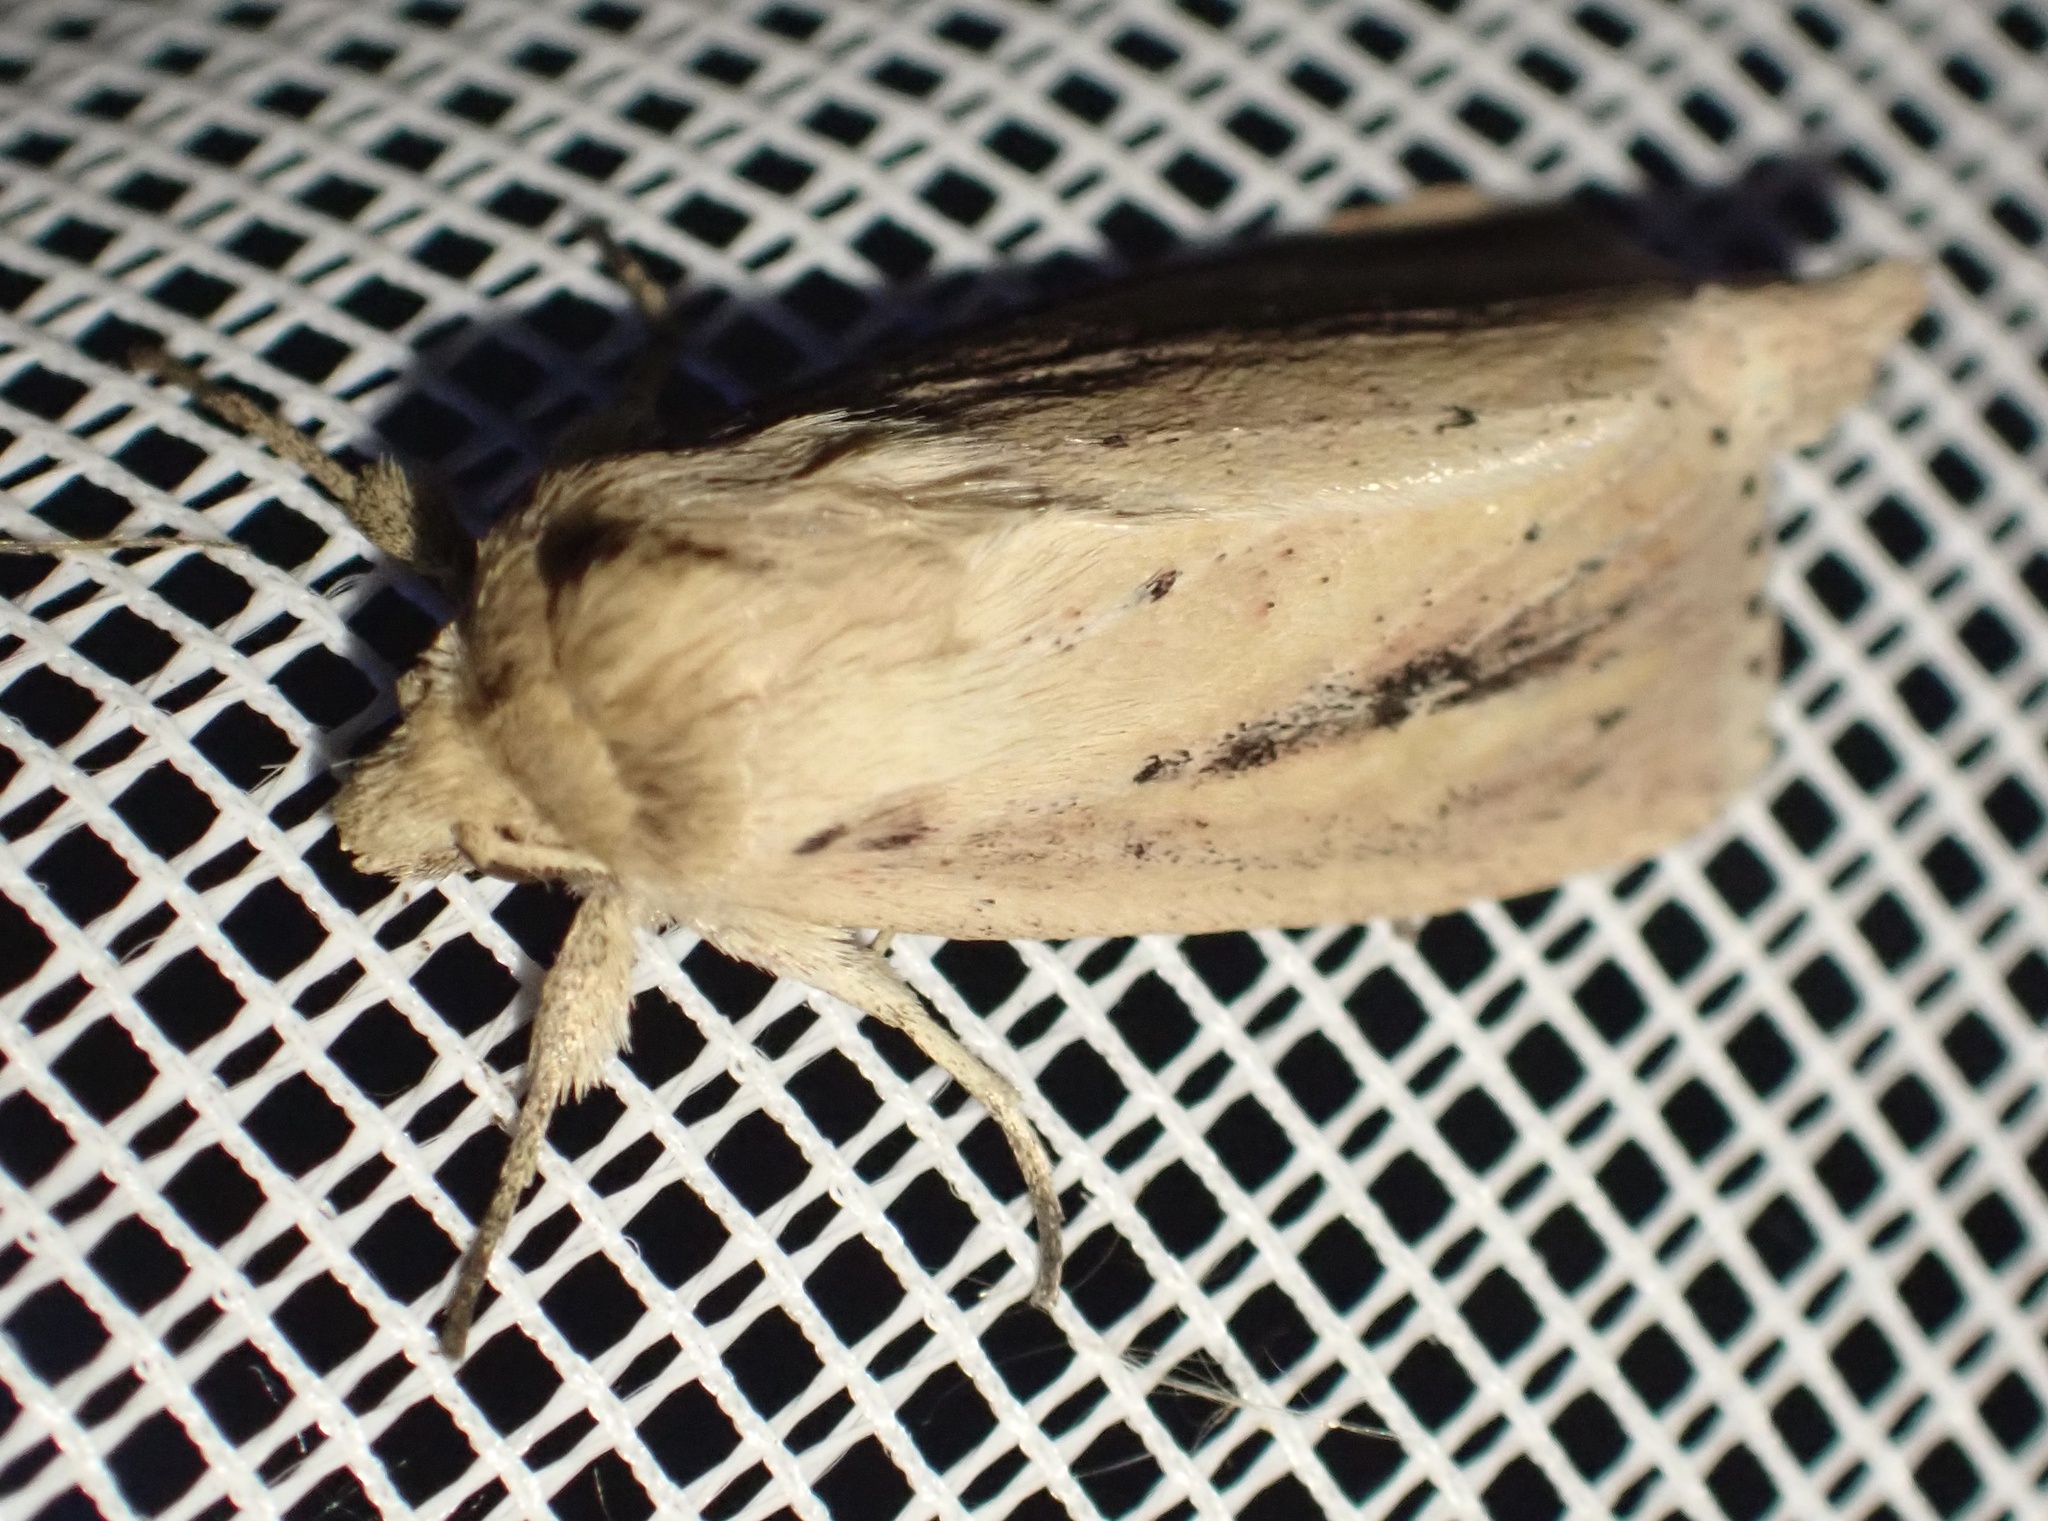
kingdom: Animalia
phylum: Arthropoda
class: Insecta
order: Lepidoptera
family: Noctuidae
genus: Globia
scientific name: Globia sparganii
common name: Webb's wainscot
